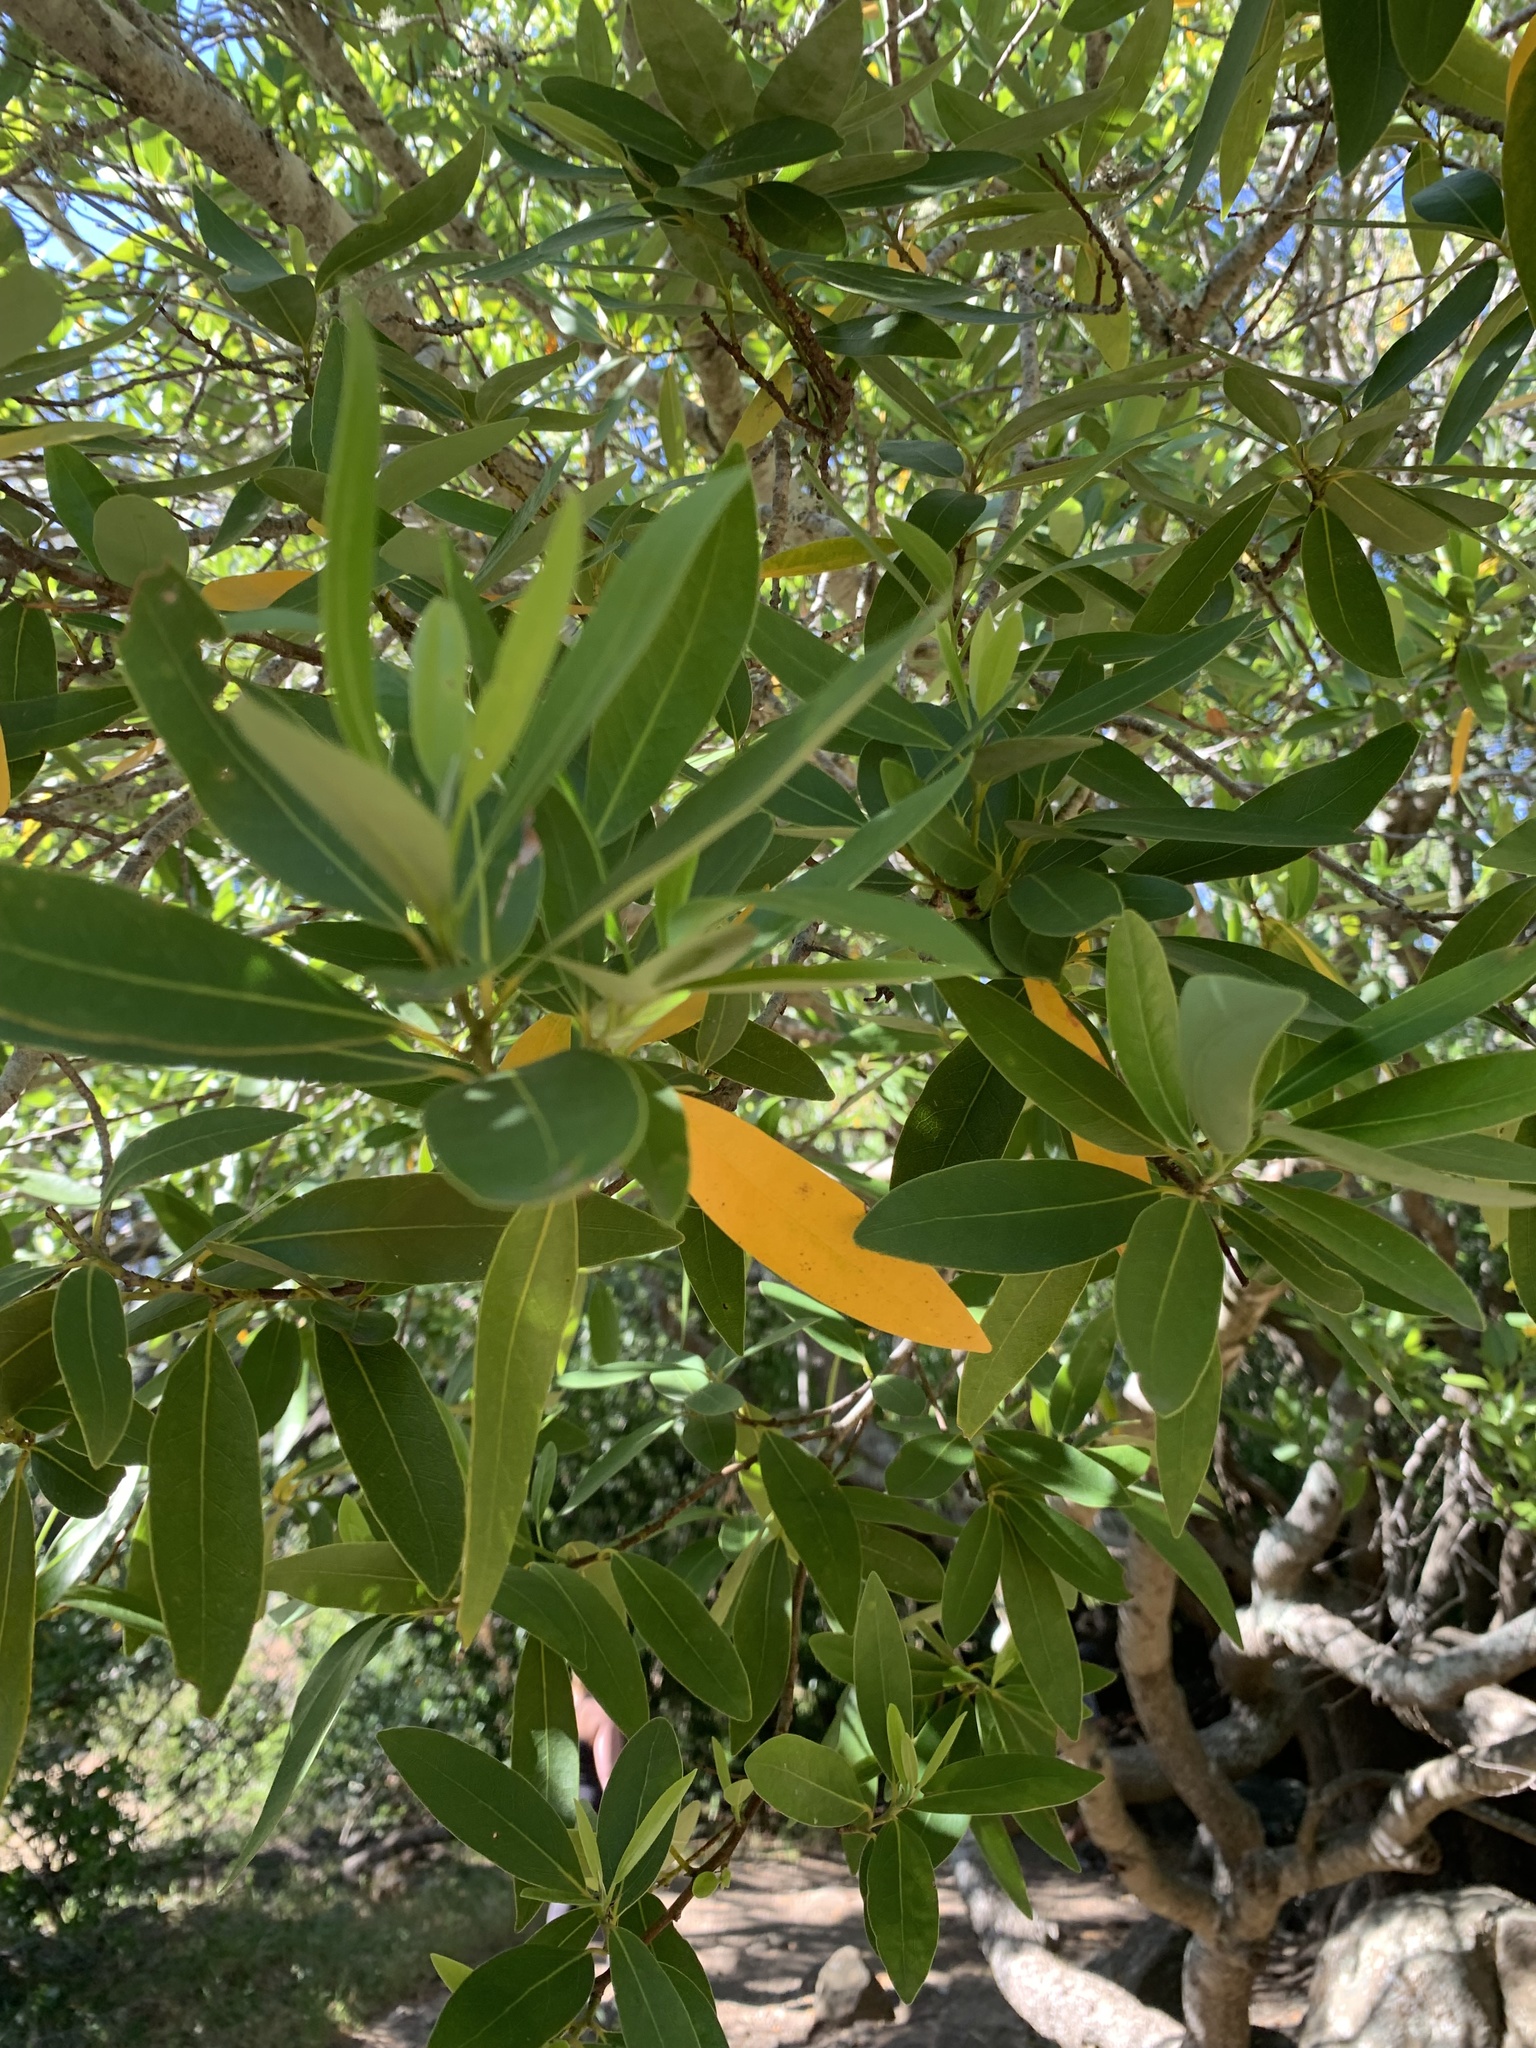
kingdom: Plantae
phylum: Tracheophyta
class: Magnoliopsida
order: Laurales
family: Lauraceae
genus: Umbellularia
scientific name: Umbellularia californica
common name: California bay
